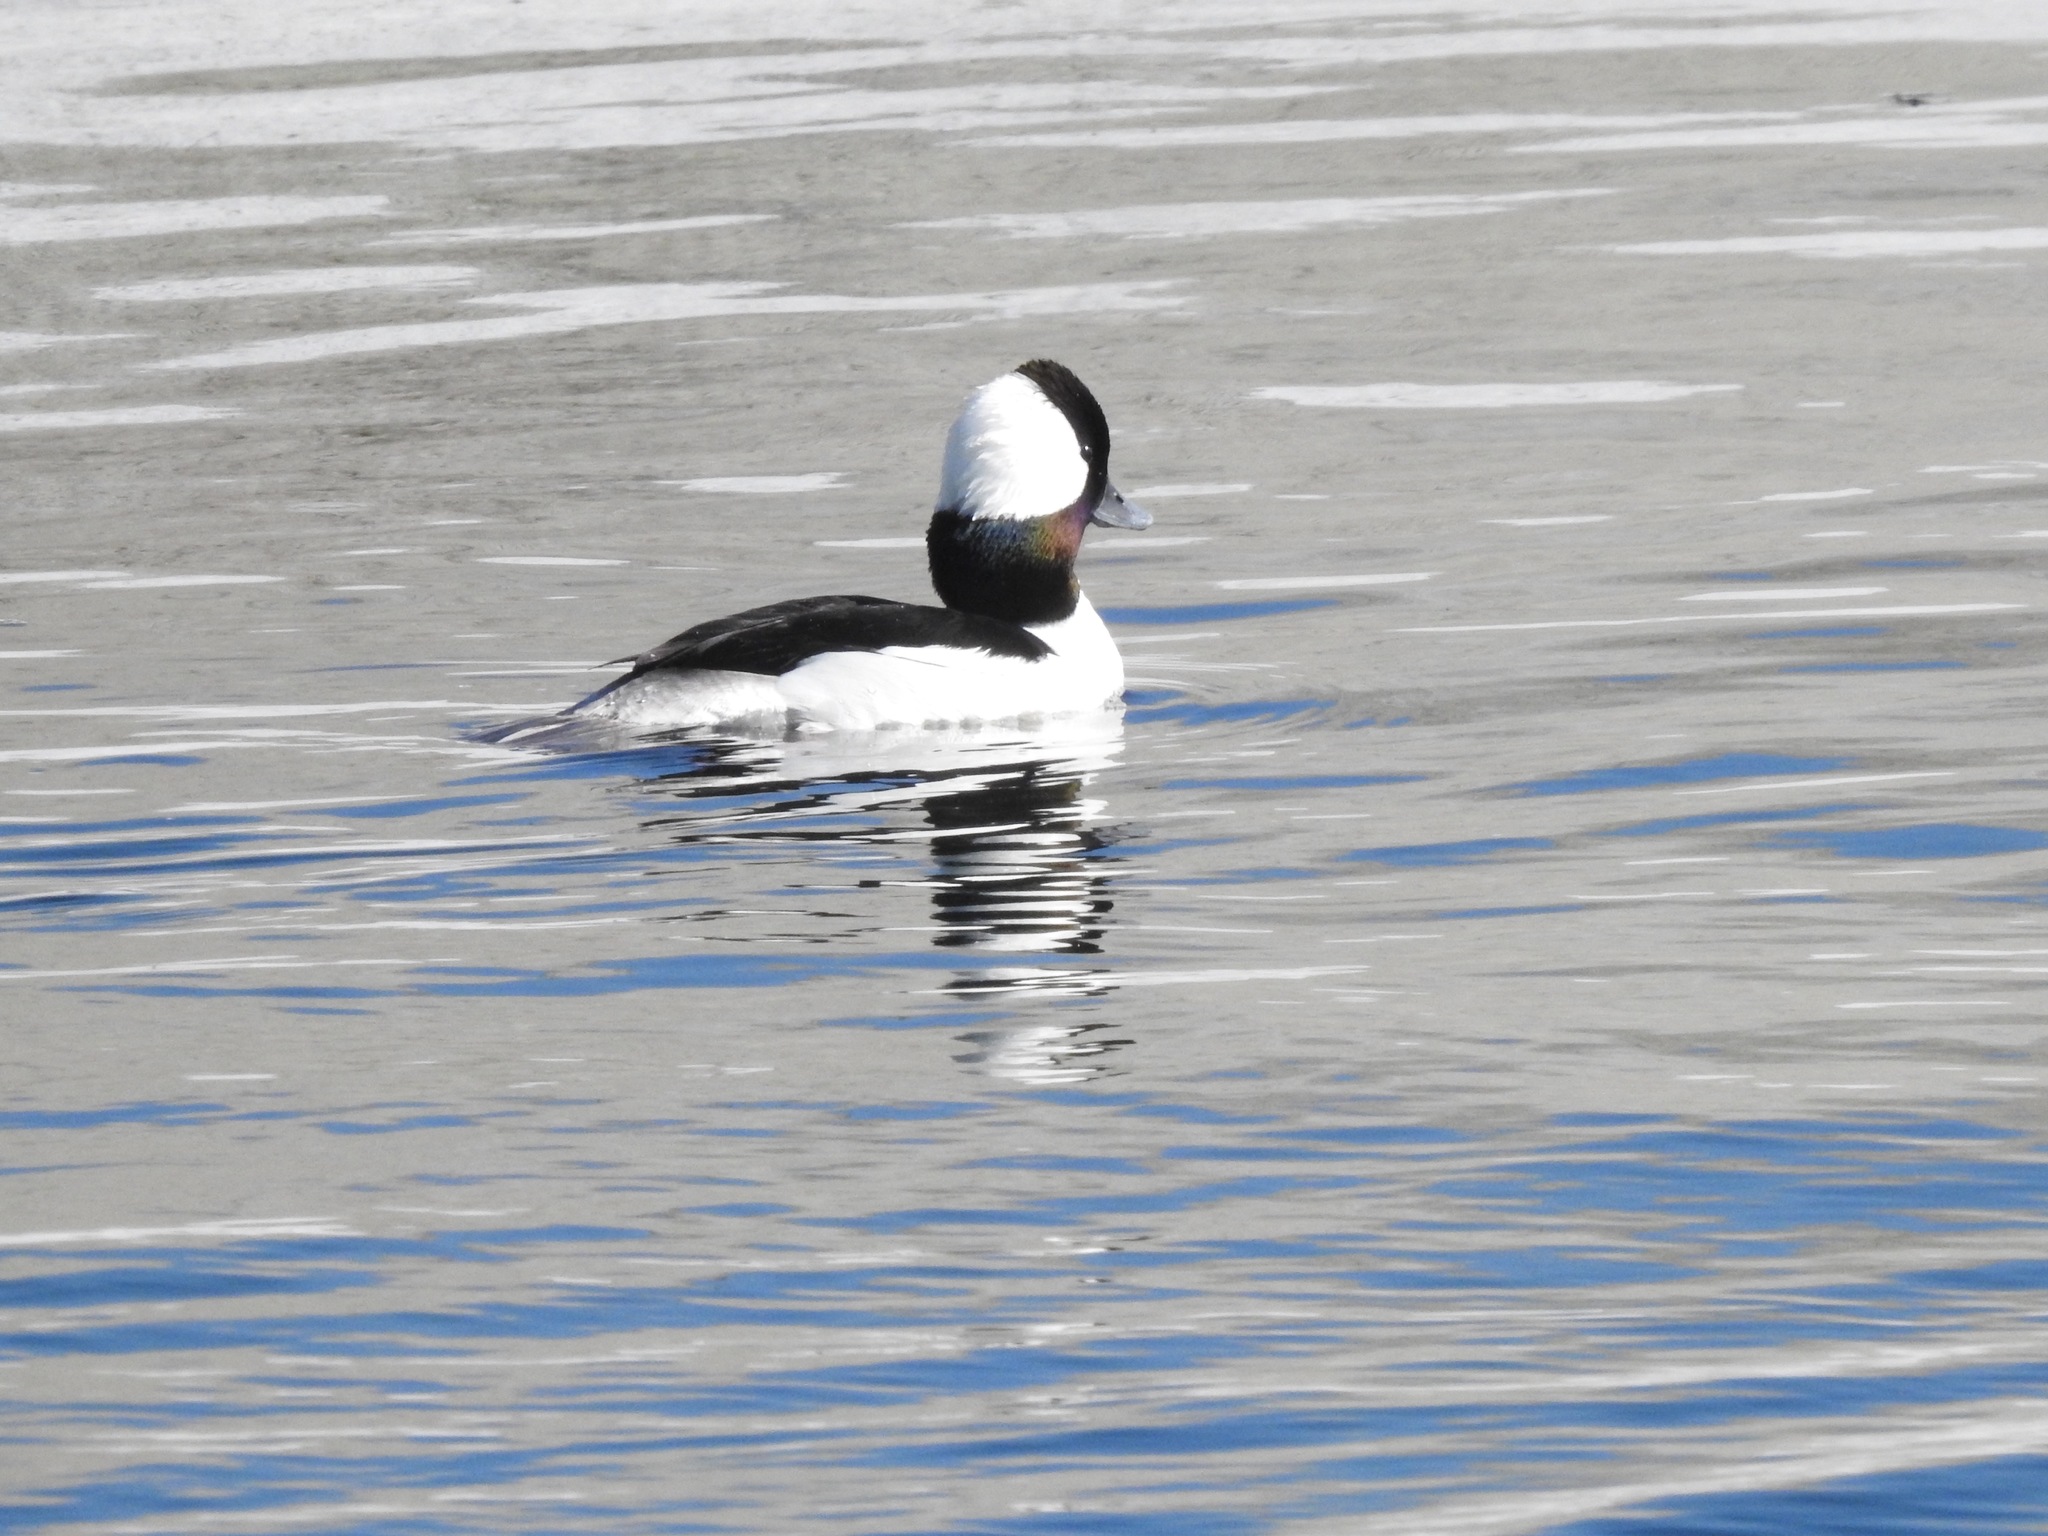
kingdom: Animalia
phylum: Chordata
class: Aves
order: Anseriformes
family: Anatidae
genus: Bucephala
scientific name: Bucephala albeola
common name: Bufflehead
